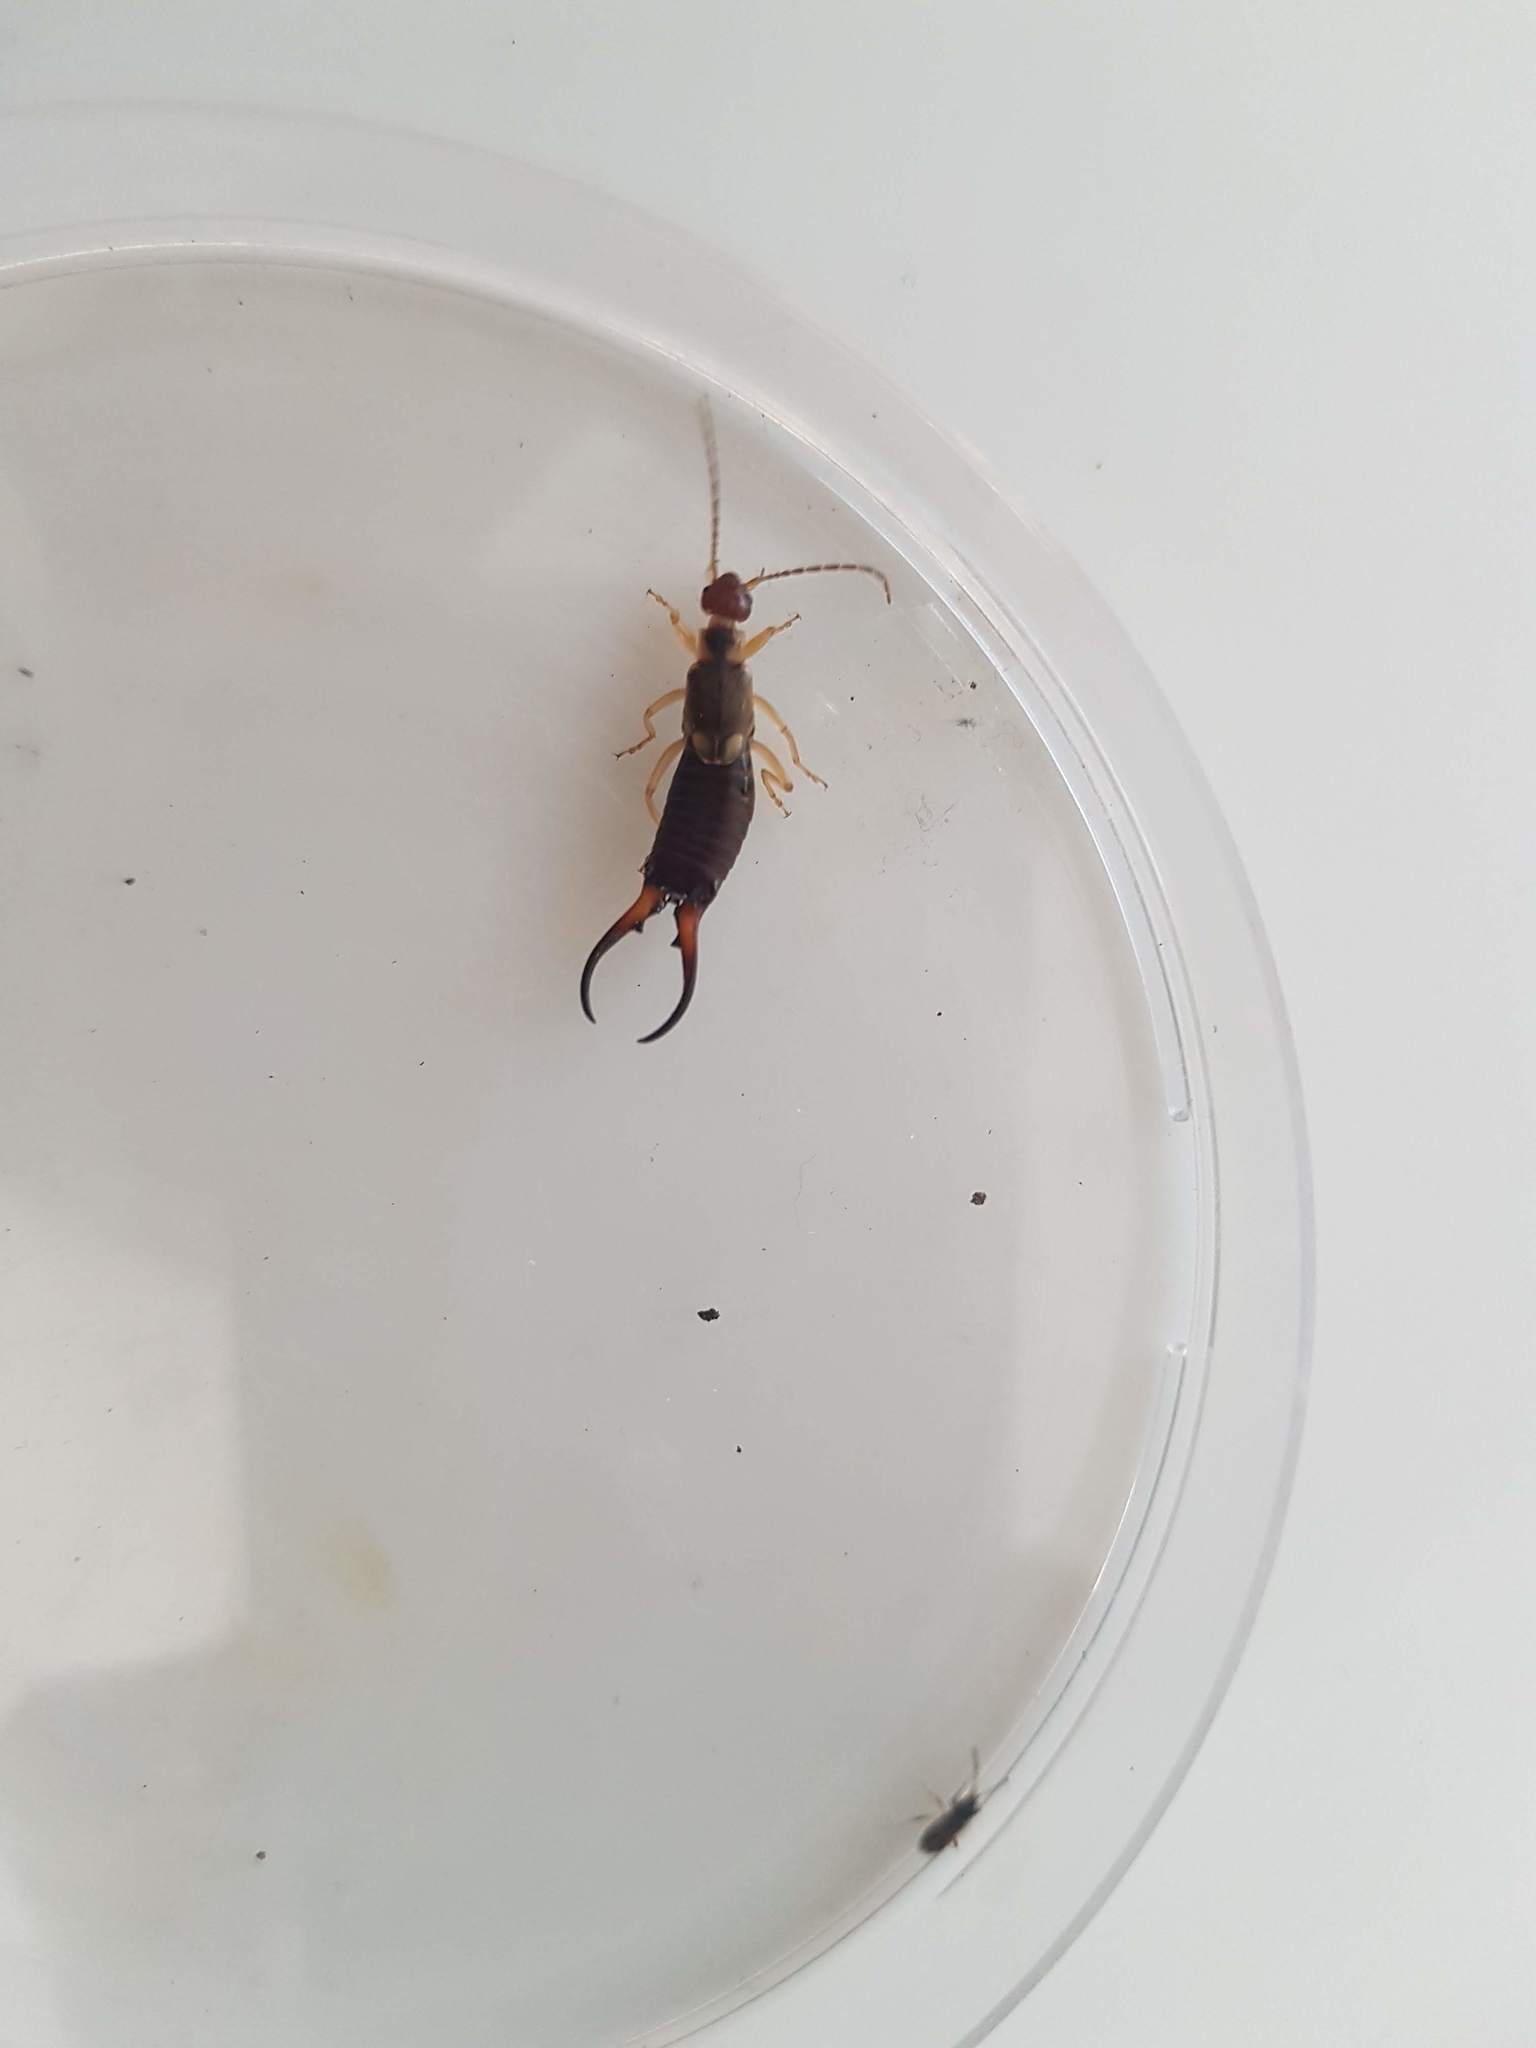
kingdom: Animalia
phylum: Arthropoda
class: Insecta
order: Dermaptera
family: Forficulidae
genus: Forficula
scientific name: Forficula
